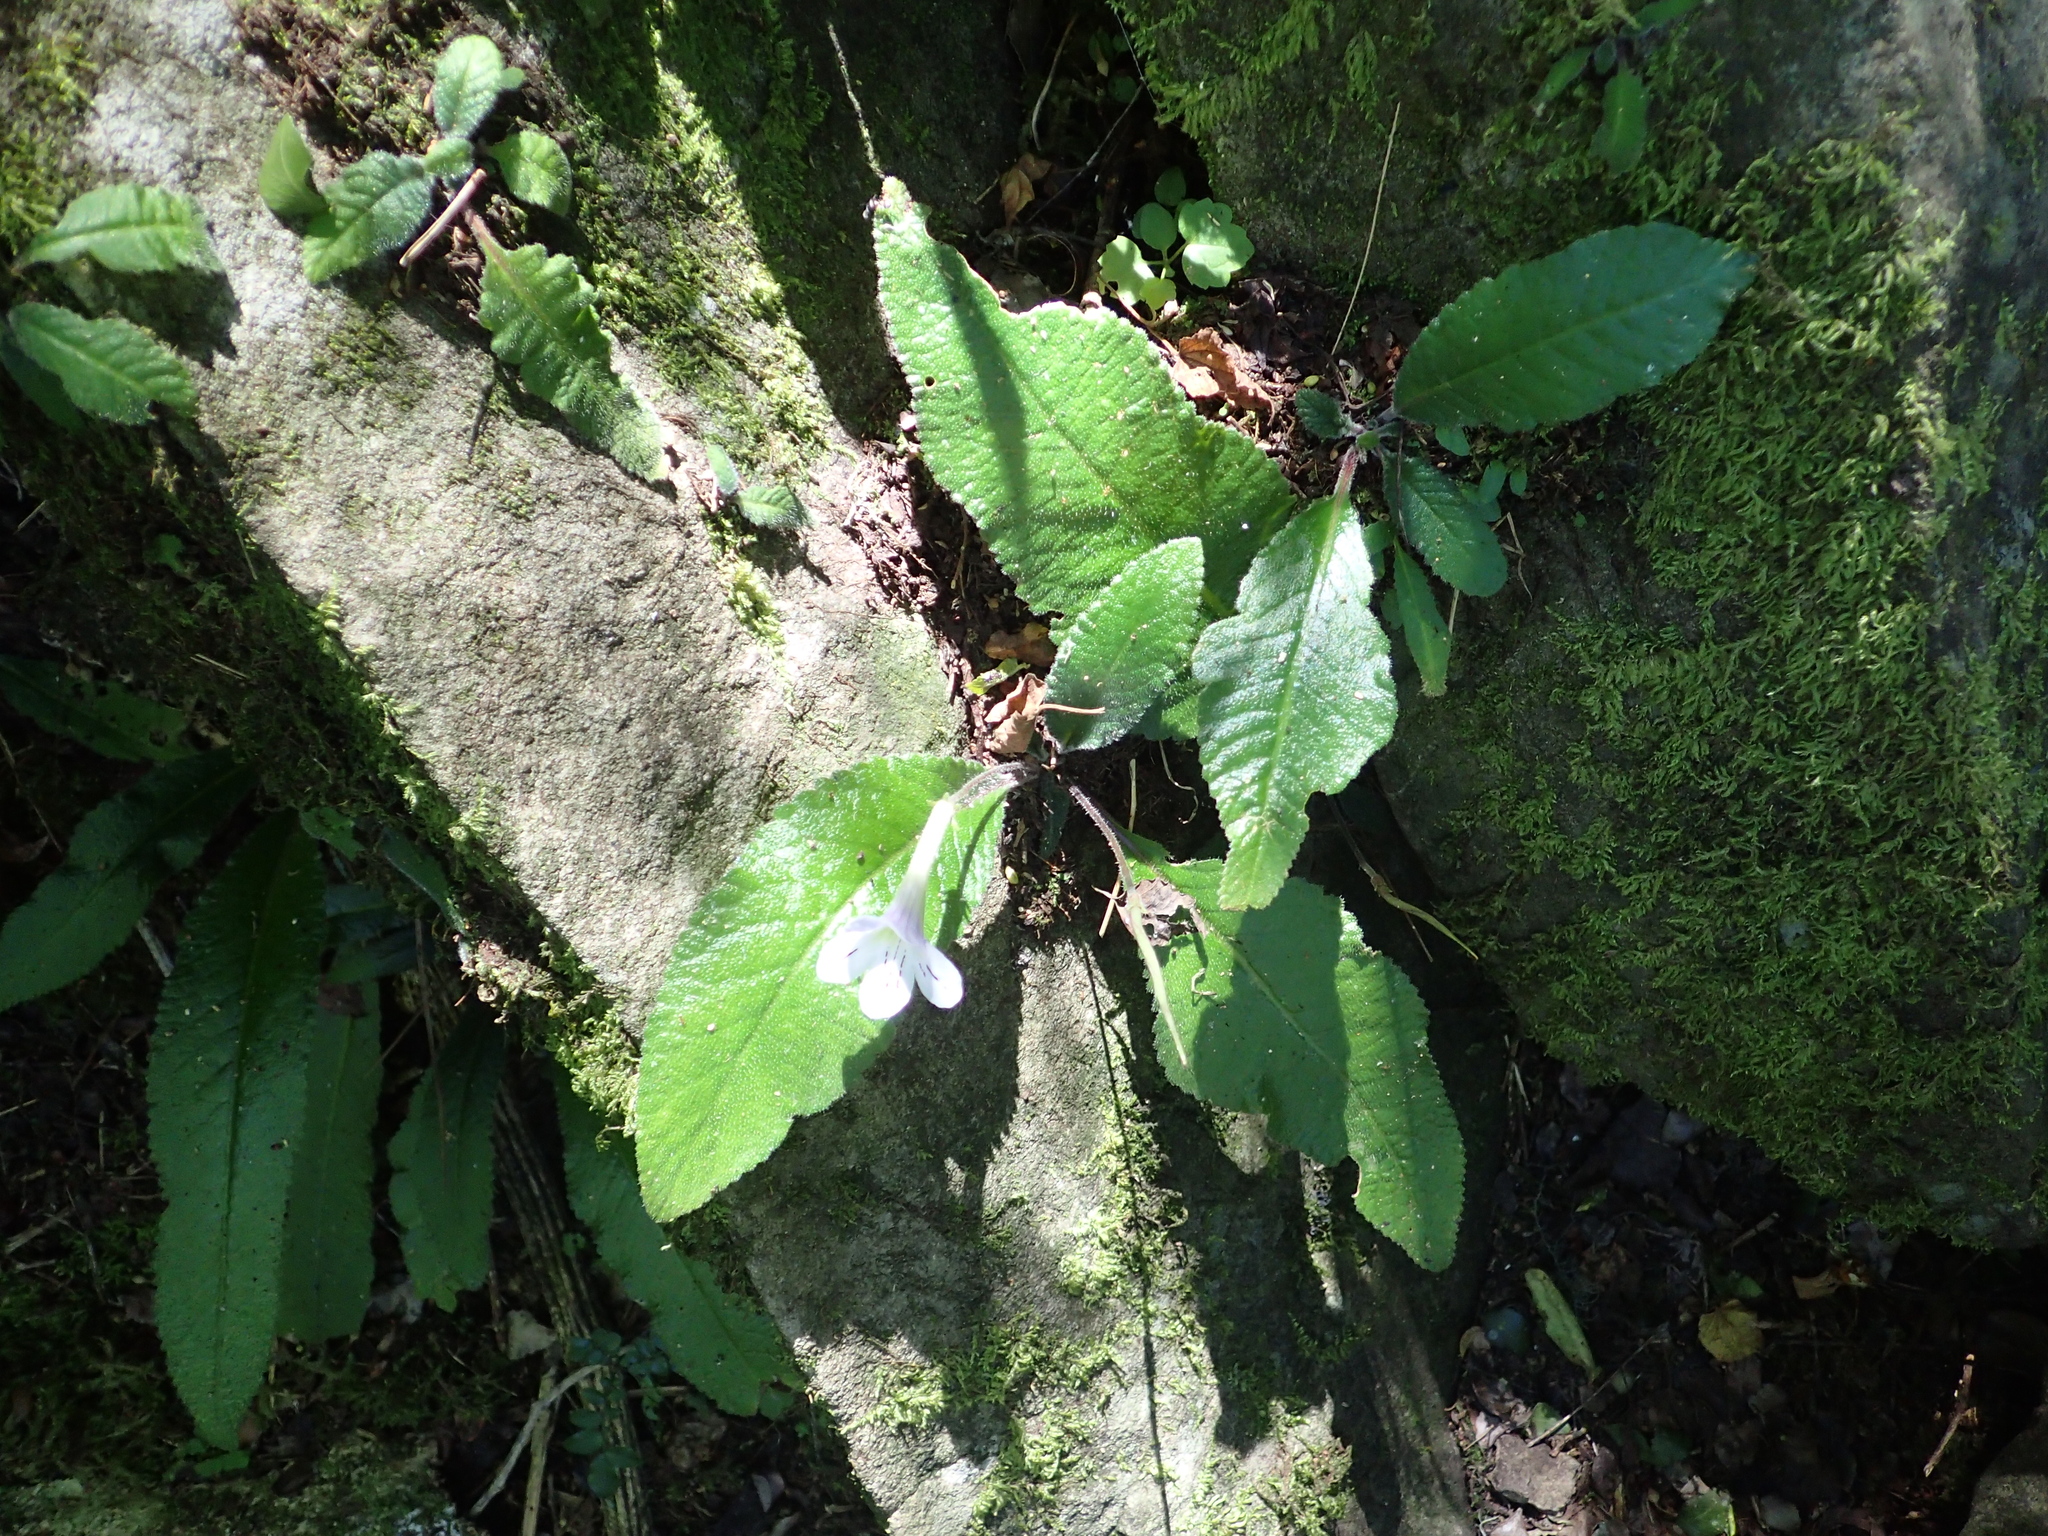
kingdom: Plantae
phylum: Tracheophyta
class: Magnoliopsida
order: Lamiales
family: Gesneriaceae
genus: Streptocarpus
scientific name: Streptocarpus gardenii
